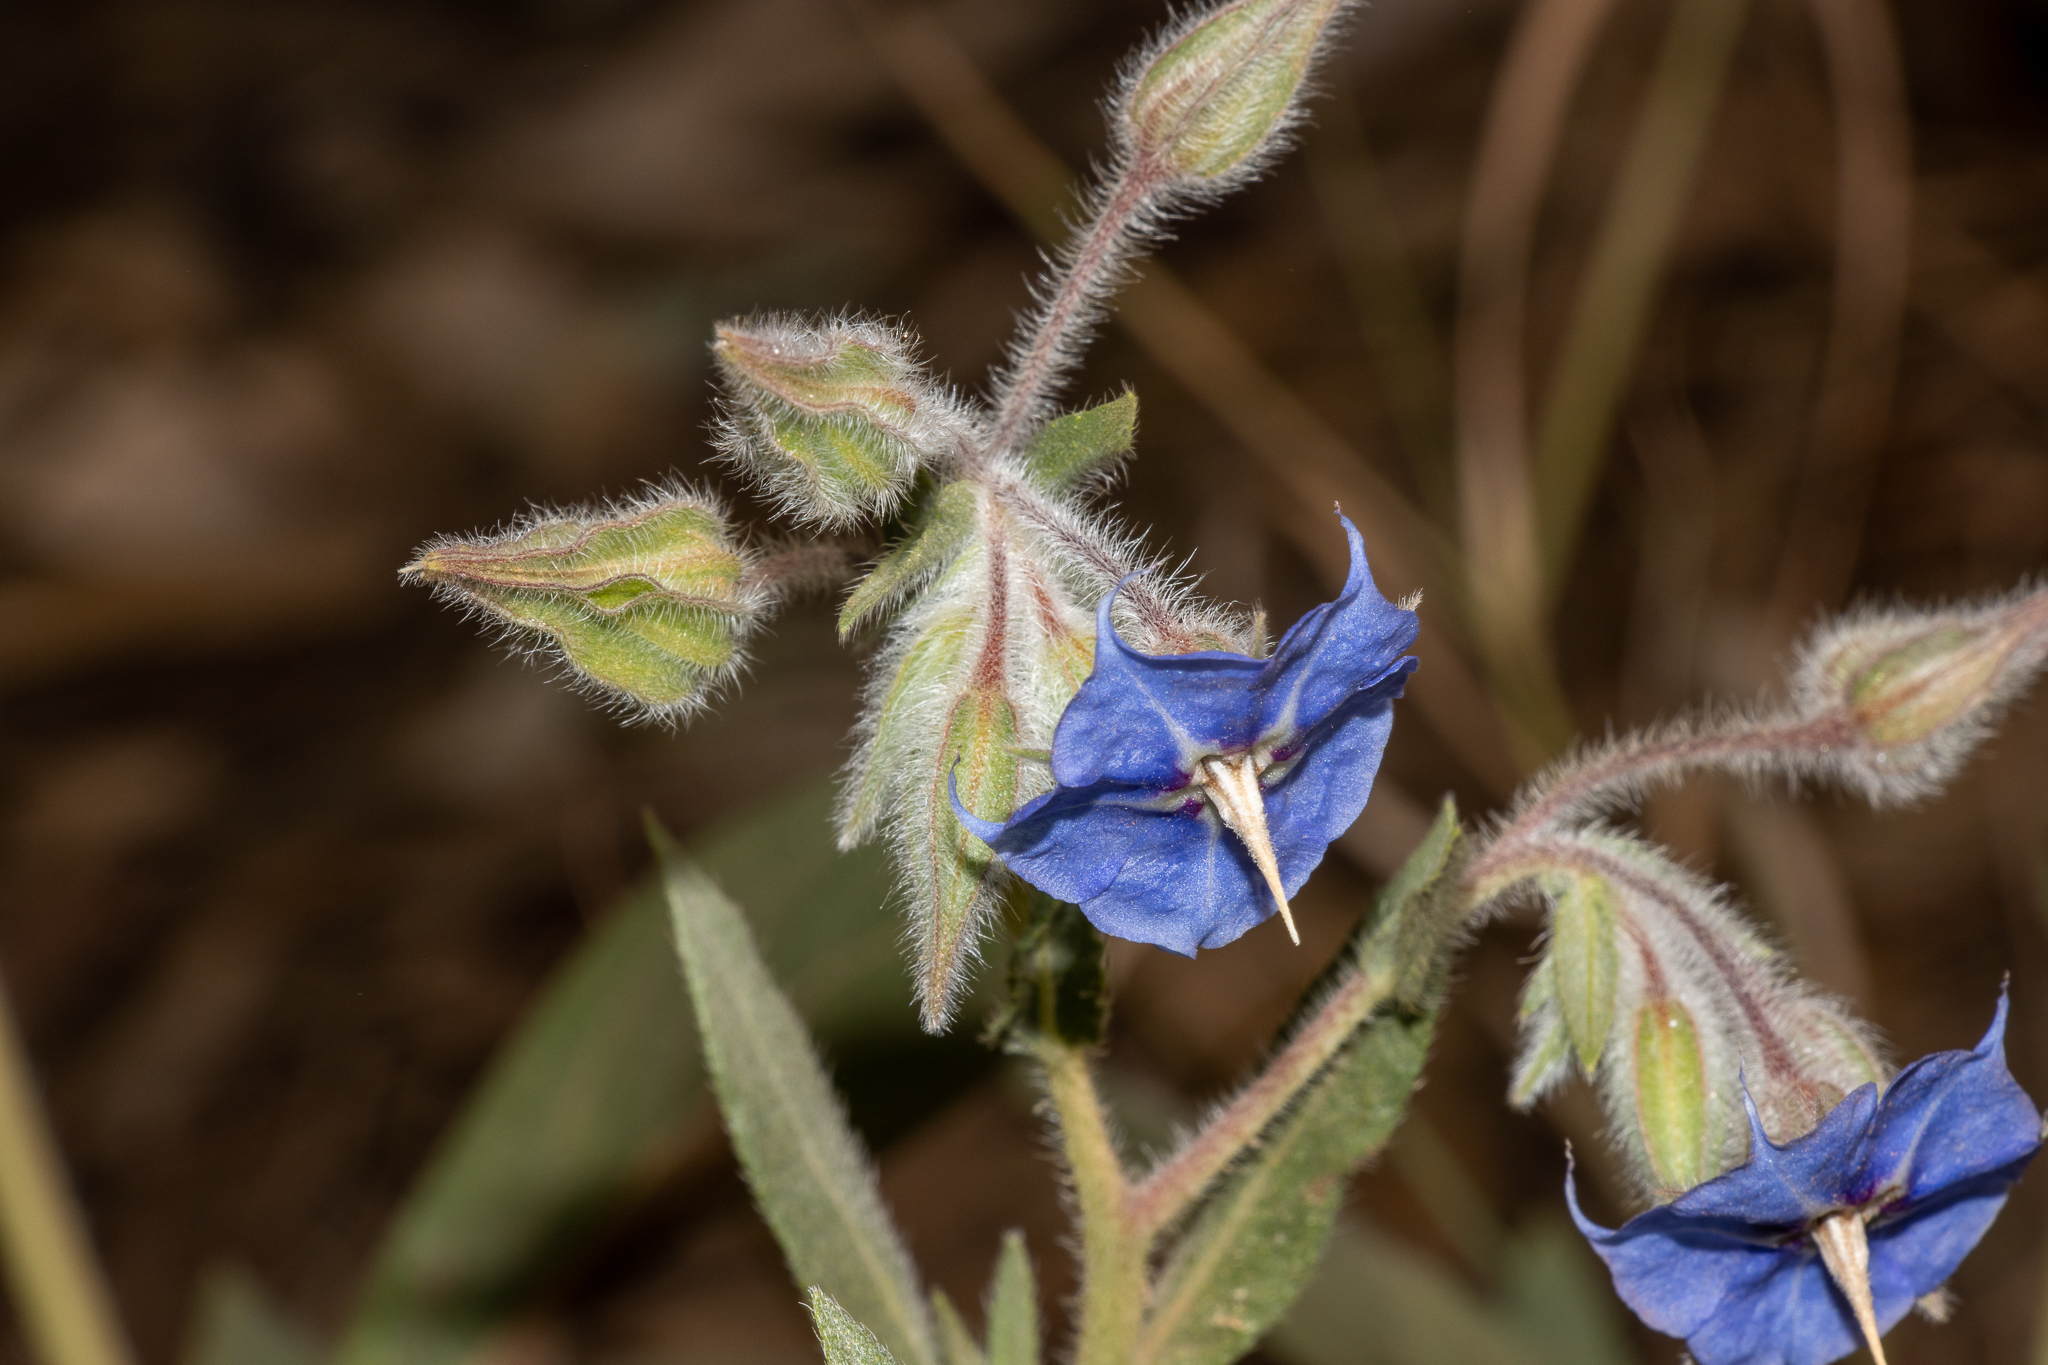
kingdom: Plantae
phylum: Tracheophyta
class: Magnoliopsida
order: Boraginales
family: Boraginaceae
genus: Trichodesma
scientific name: Trichodesma zeylanicum
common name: Camelbush
